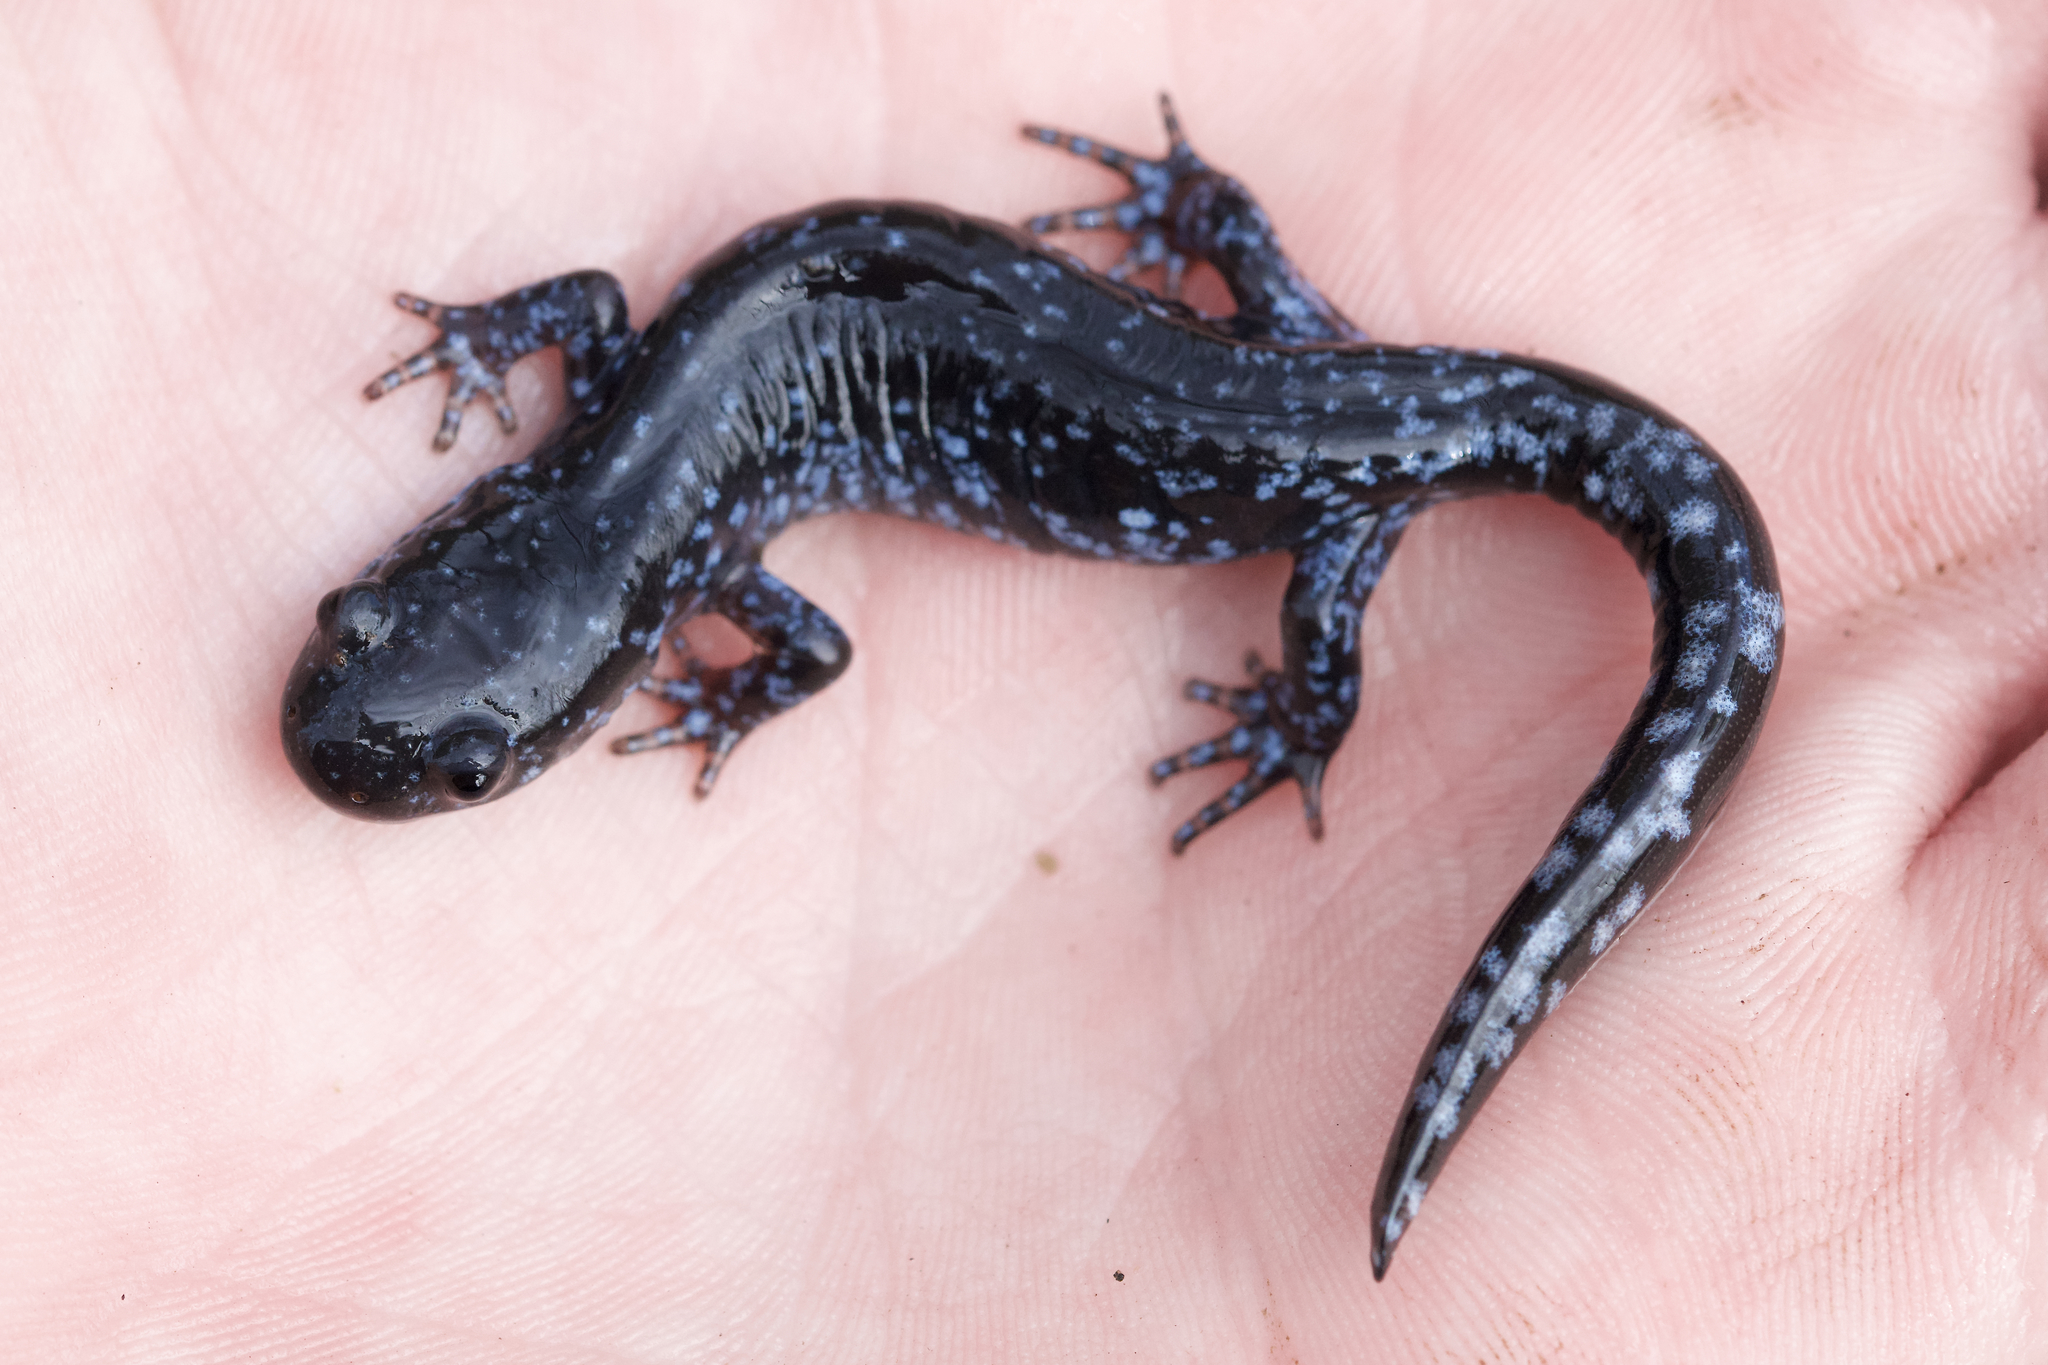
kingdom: Animalia
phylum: Chordata
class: Amphibia
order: Caudata
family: Ambystomatidae
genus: Ambystoma
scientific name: Ambystoma laterale
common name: Blue-spotted salamander
